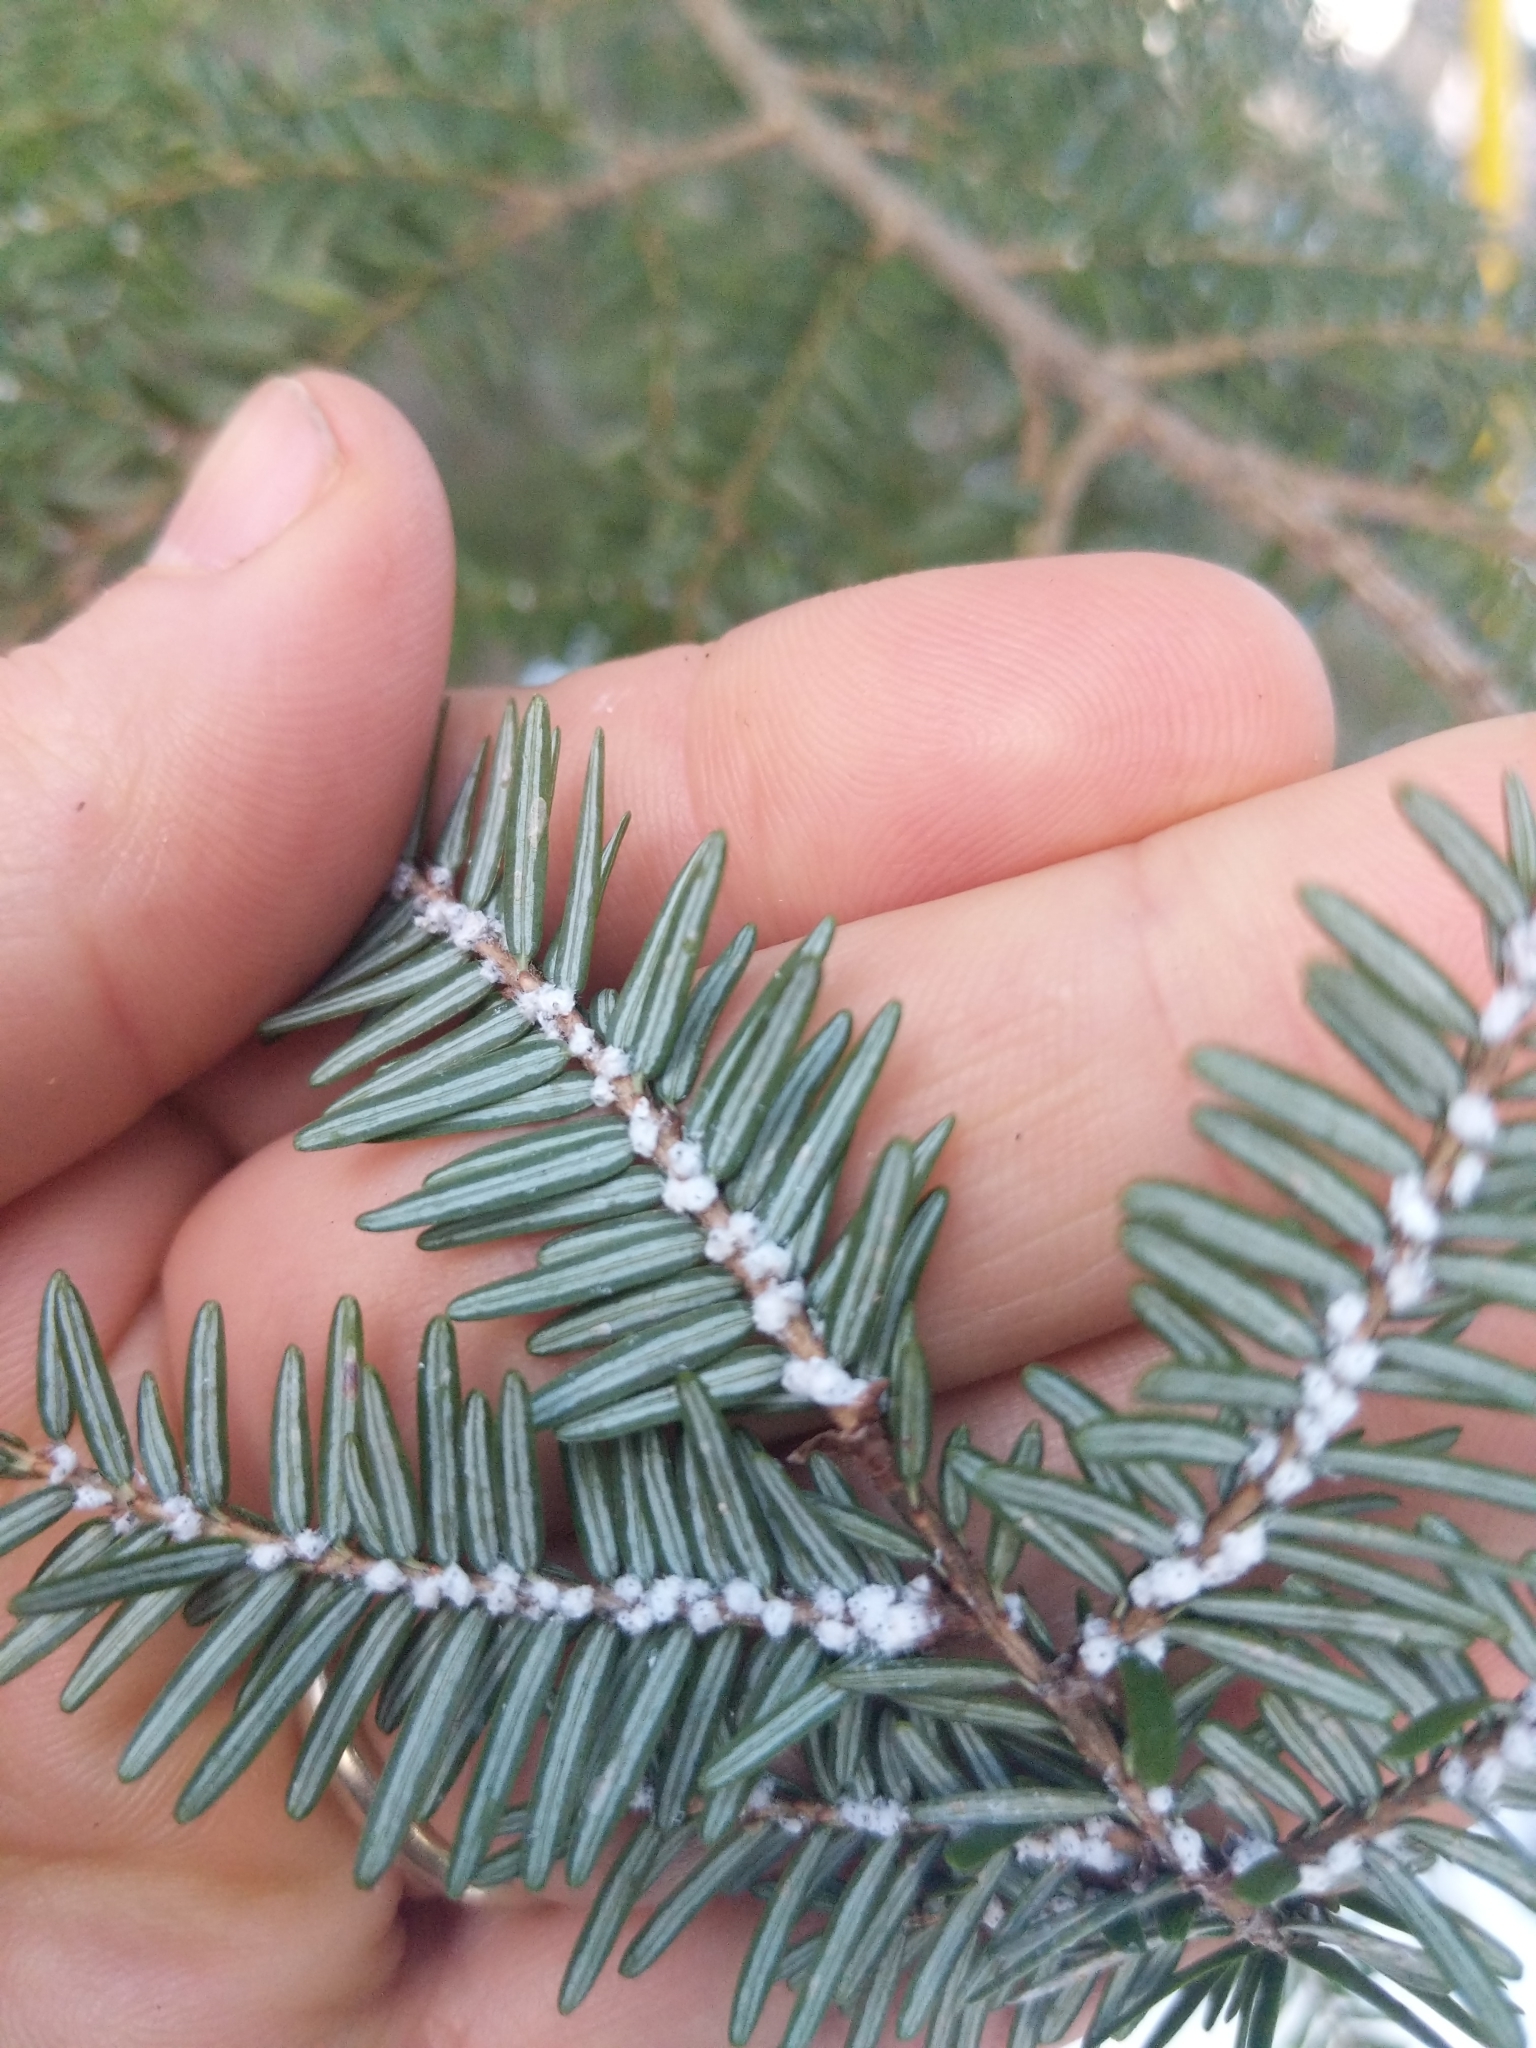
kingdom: Animalia
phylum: Arthropoda
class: Insecta
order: Hemiptera
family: Adelgidae
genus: Adelges
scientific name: Adelges tsugae
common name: Hemlock woolly adelgid
